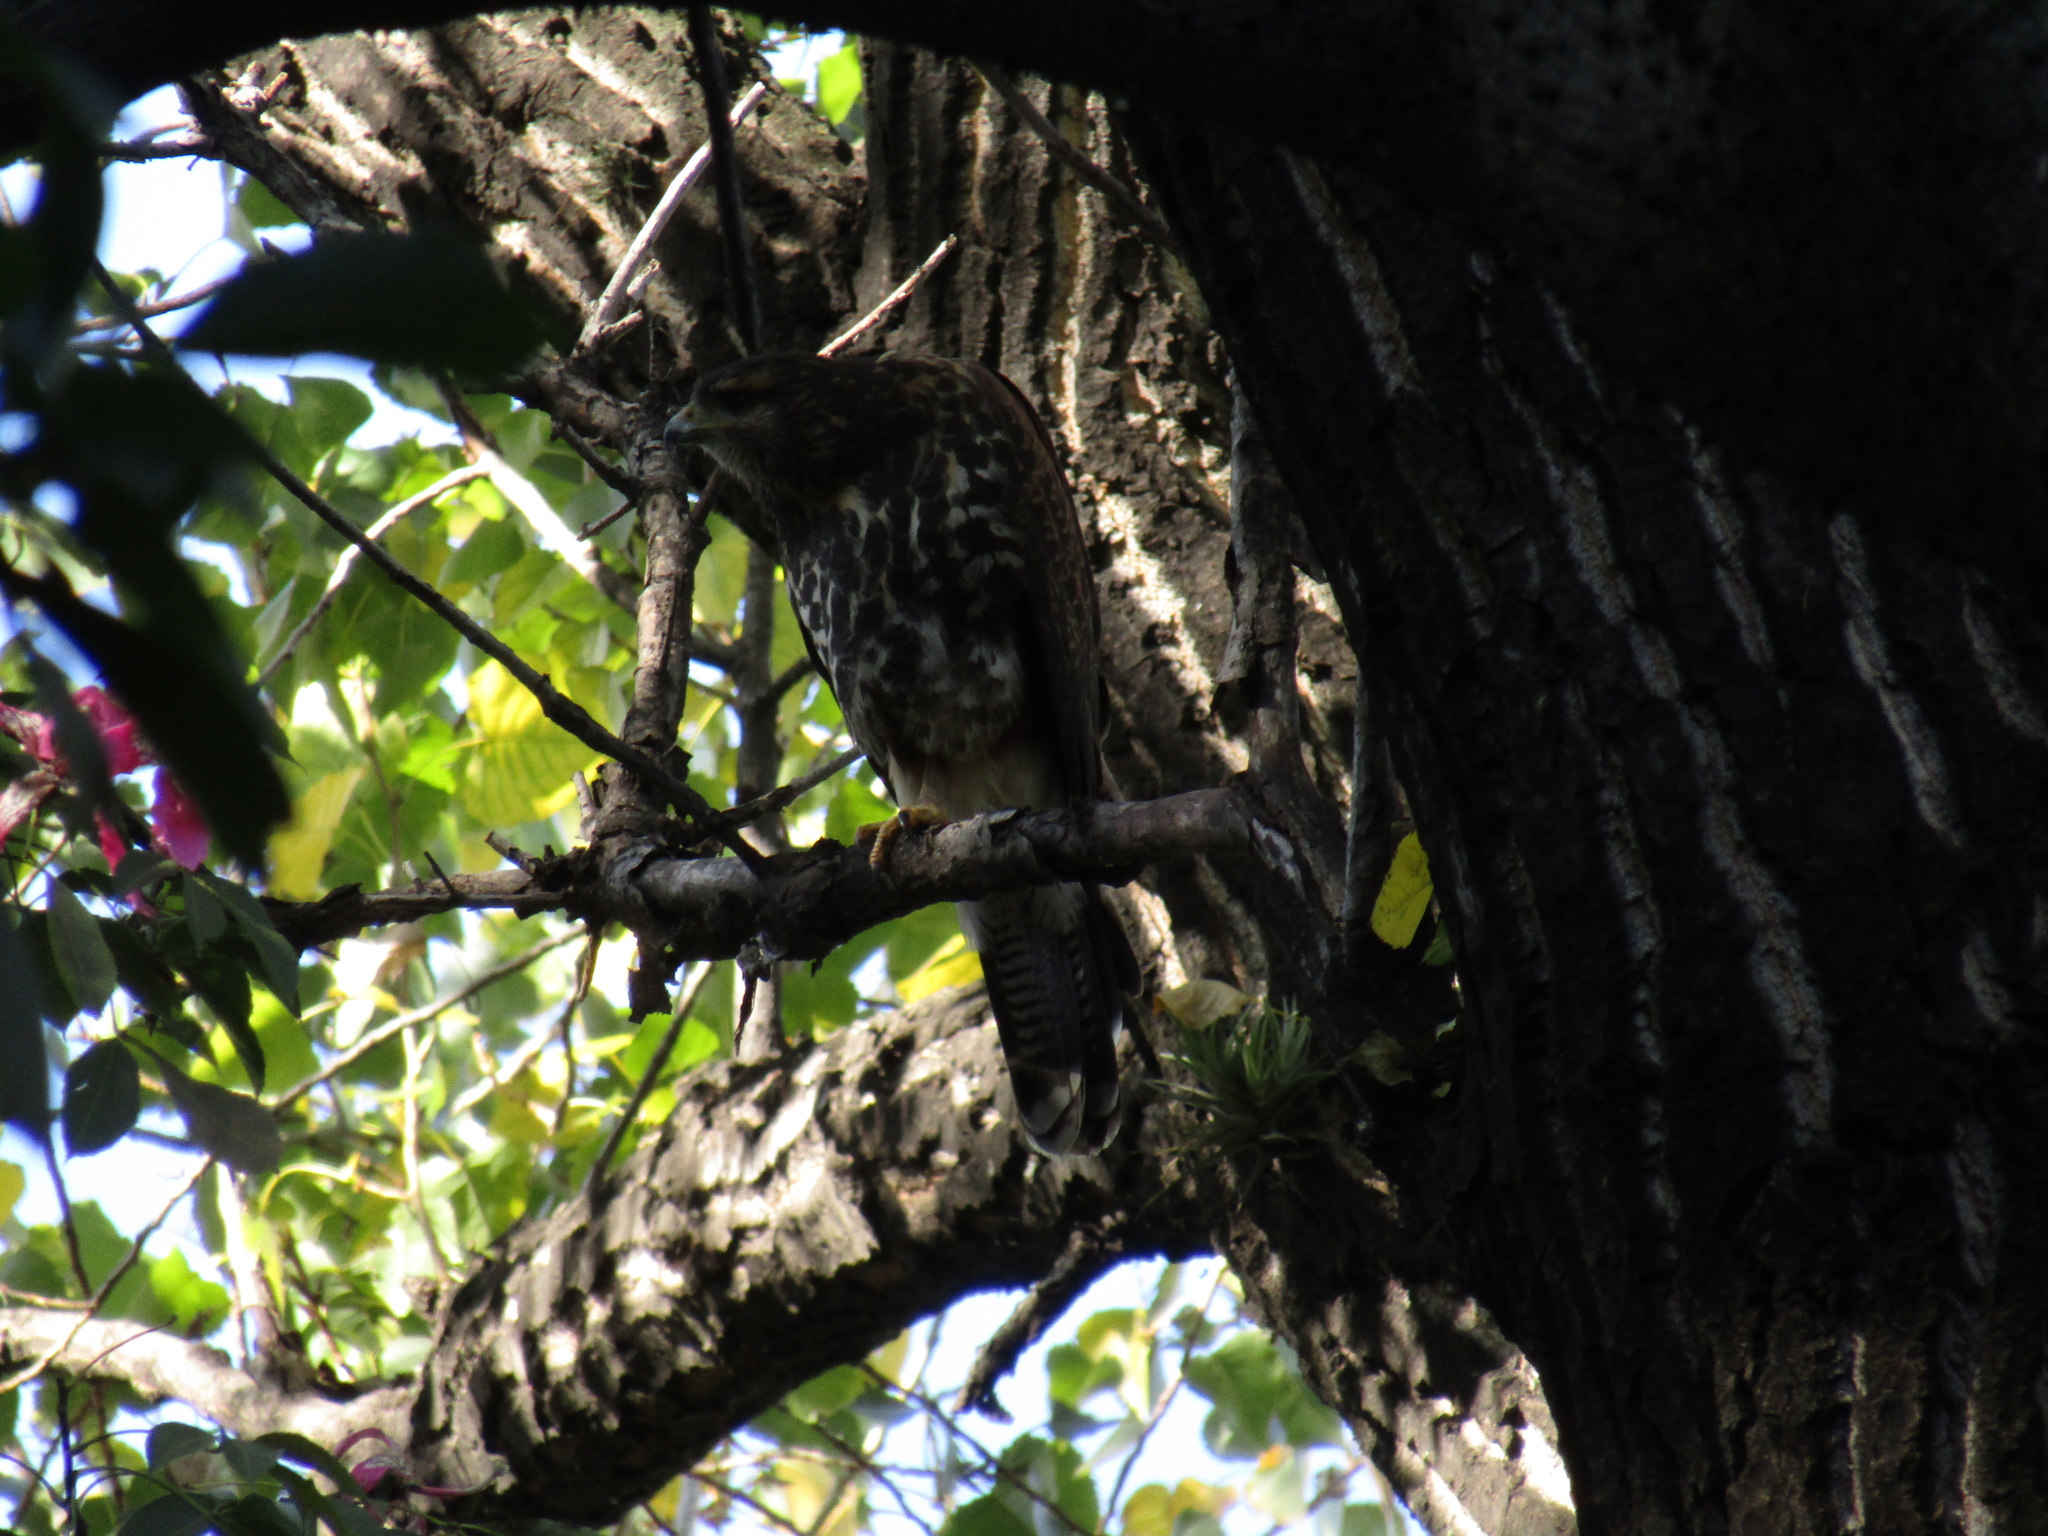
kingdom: Animalia
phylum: Chordata
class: Aves
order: Accipitriformes
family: Accipitridae
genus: Parabuteo
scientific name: Parabuteo unicinctus
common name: Harris's hawk
